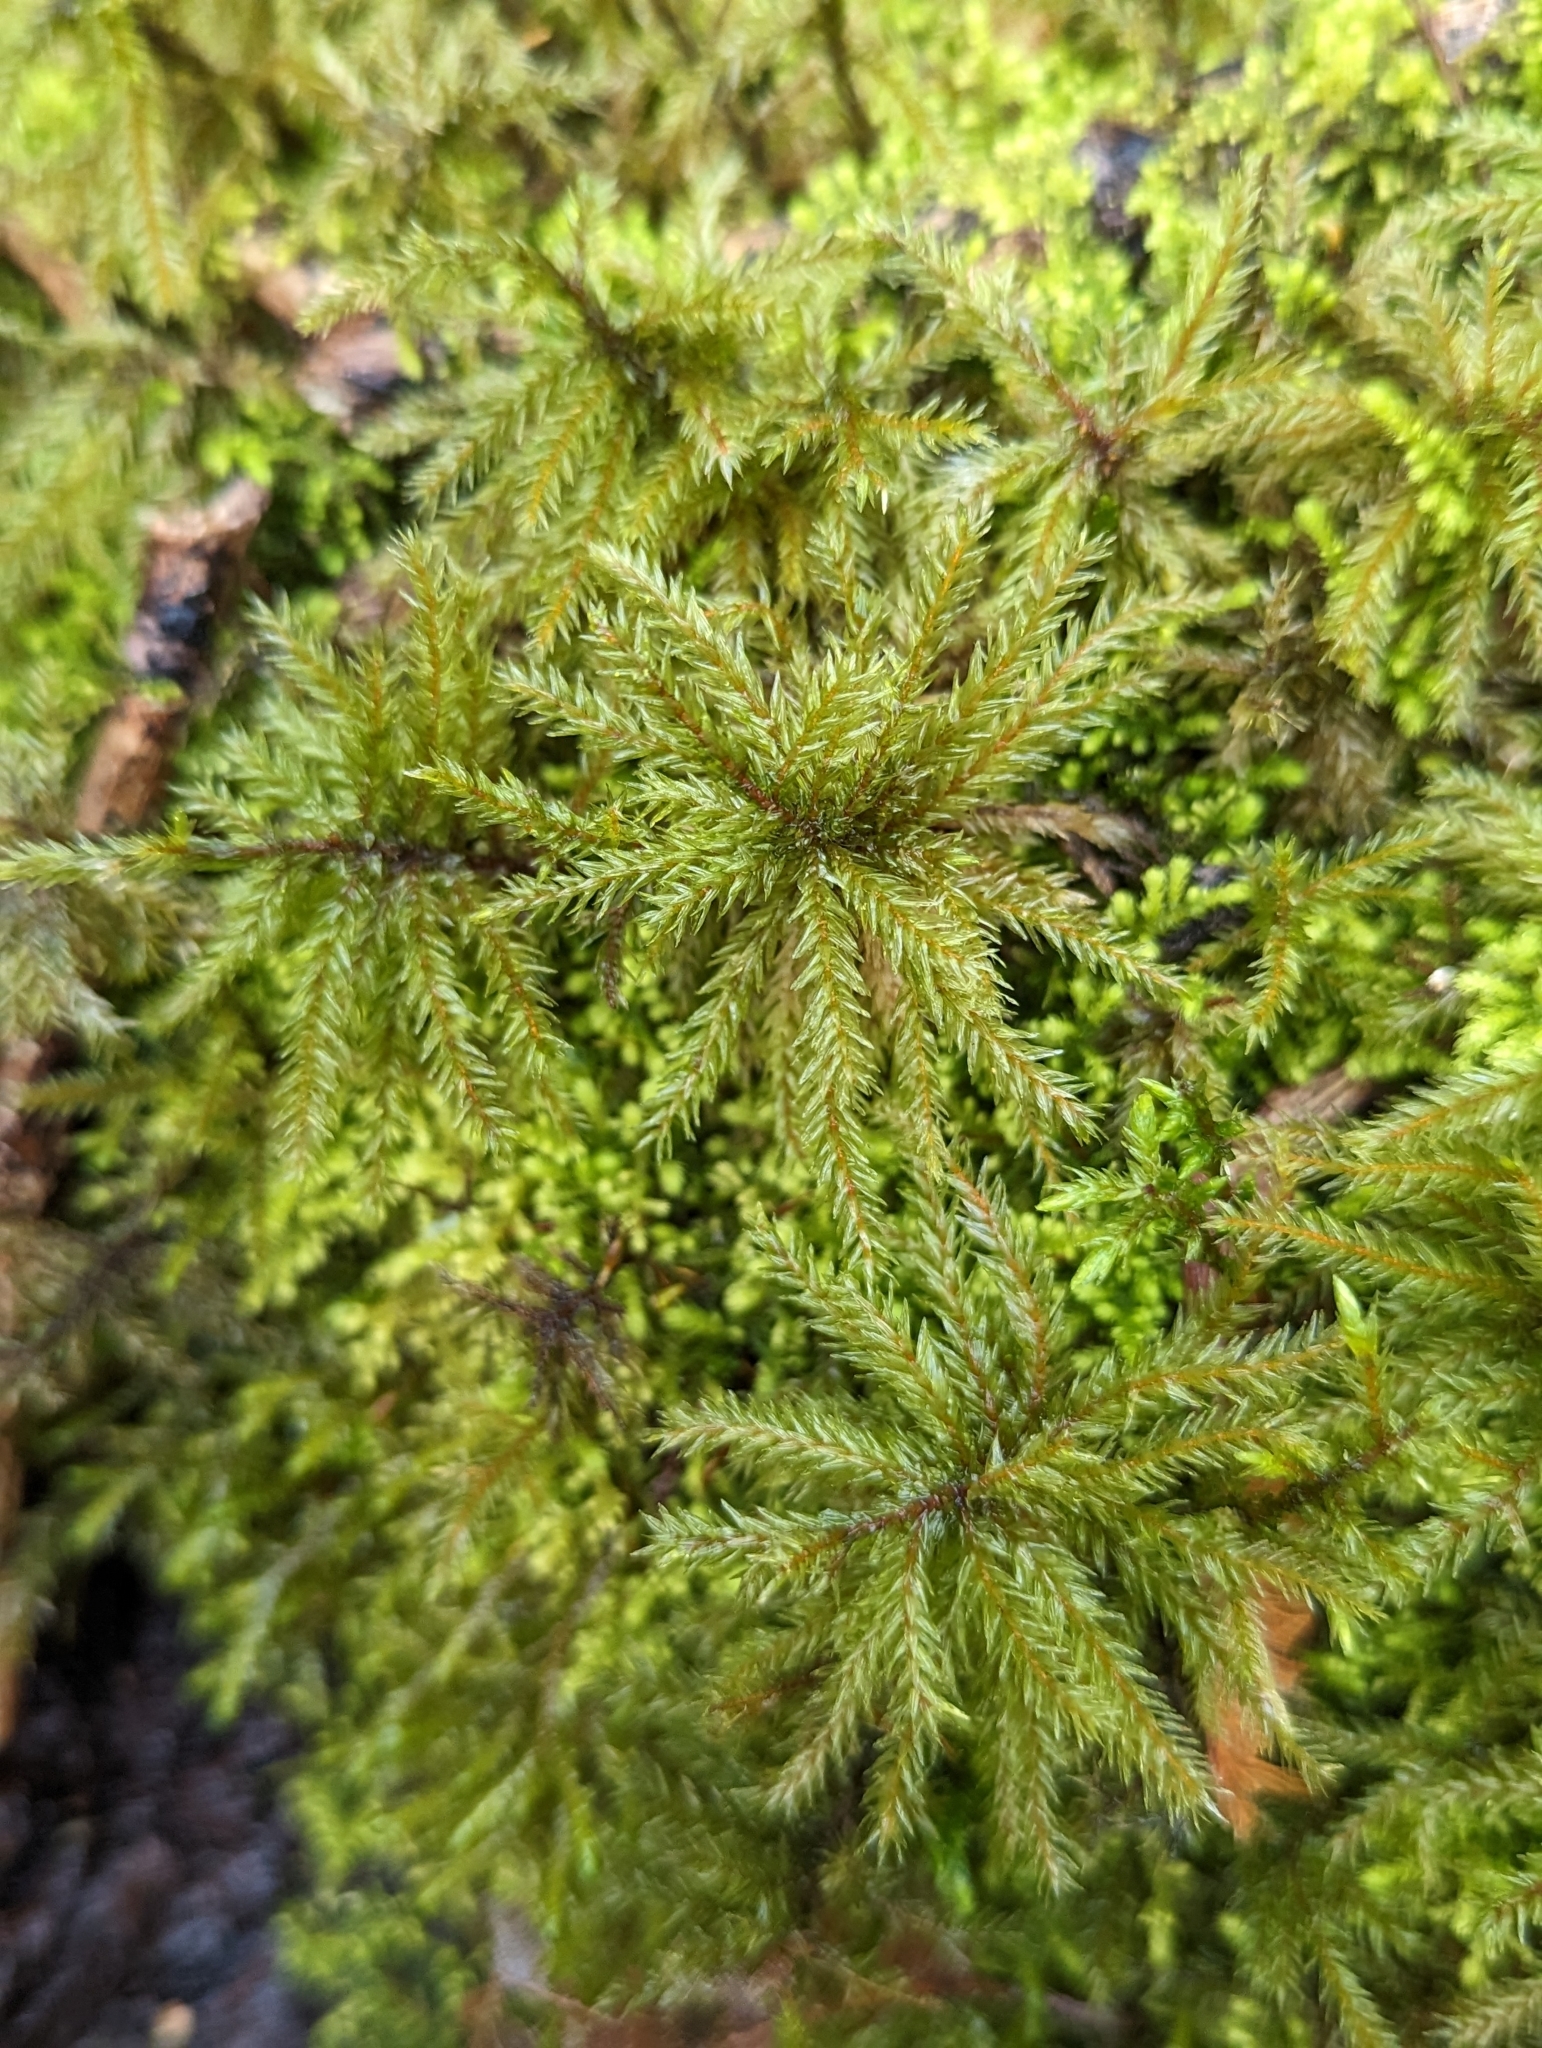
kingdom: Plantae
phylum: Bryophyta
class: Bryopsida
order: Hypnales
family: Climaciaceae
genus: Climacium
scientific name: Climacium dendroides
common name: Northern tree moss
